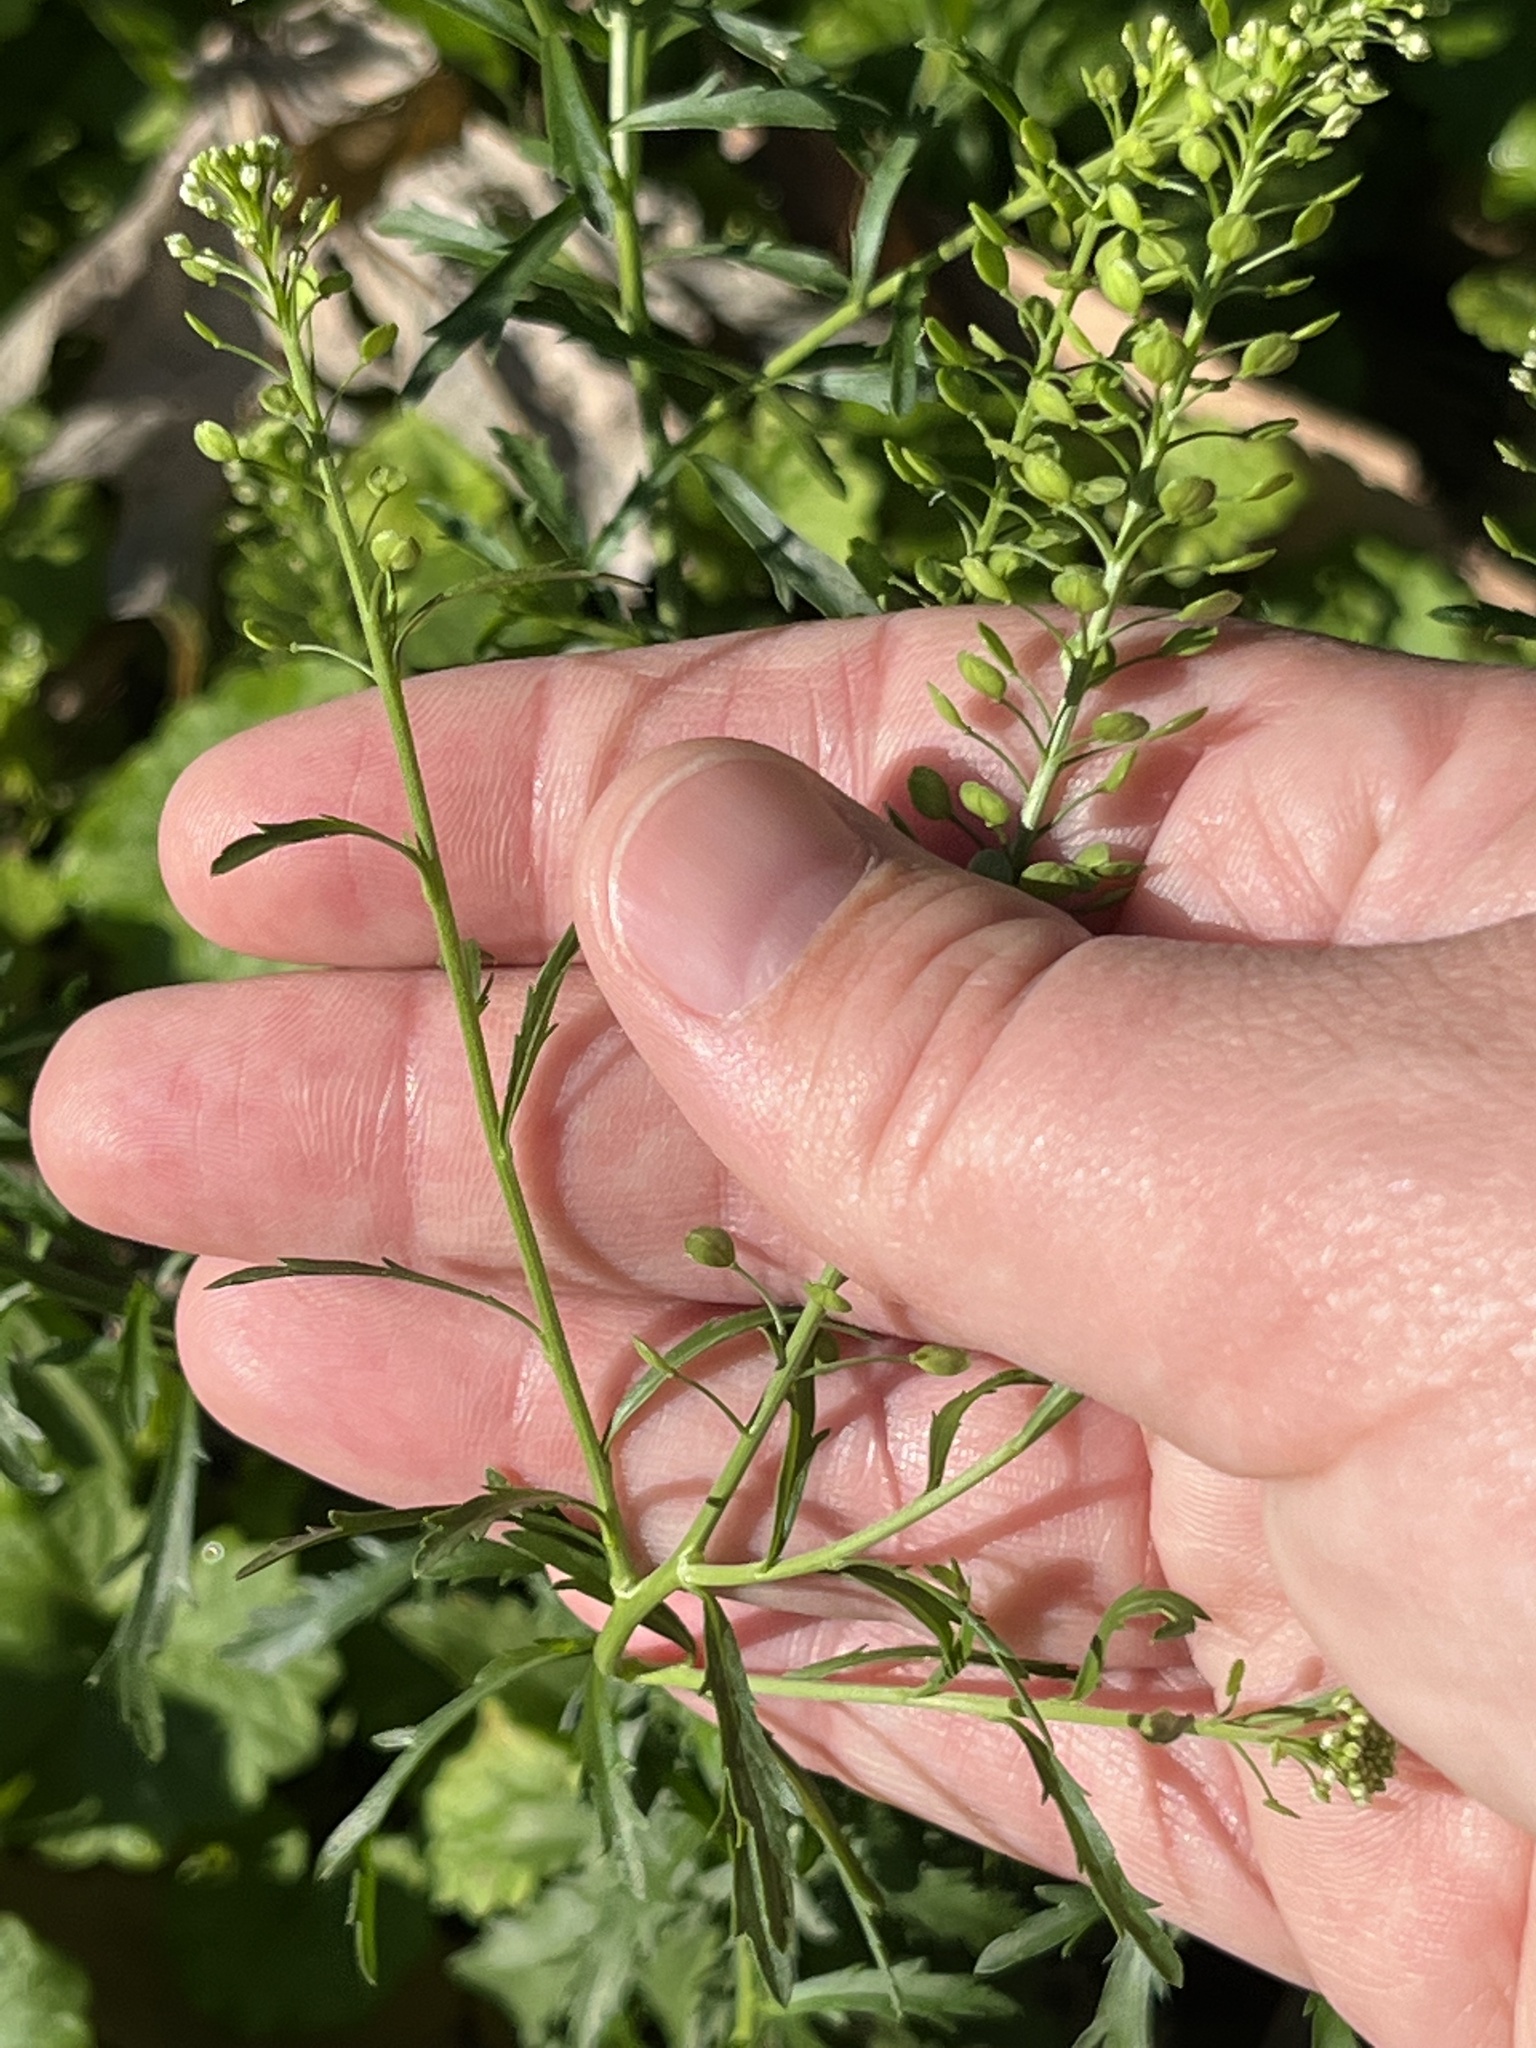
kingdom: Plantae
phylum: Tracheophyta
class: Magnoliopsida
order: Brassicales
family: Brassicaceae
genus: Lepidium
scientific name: Lepidium virginicum
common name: Least pepperwort
